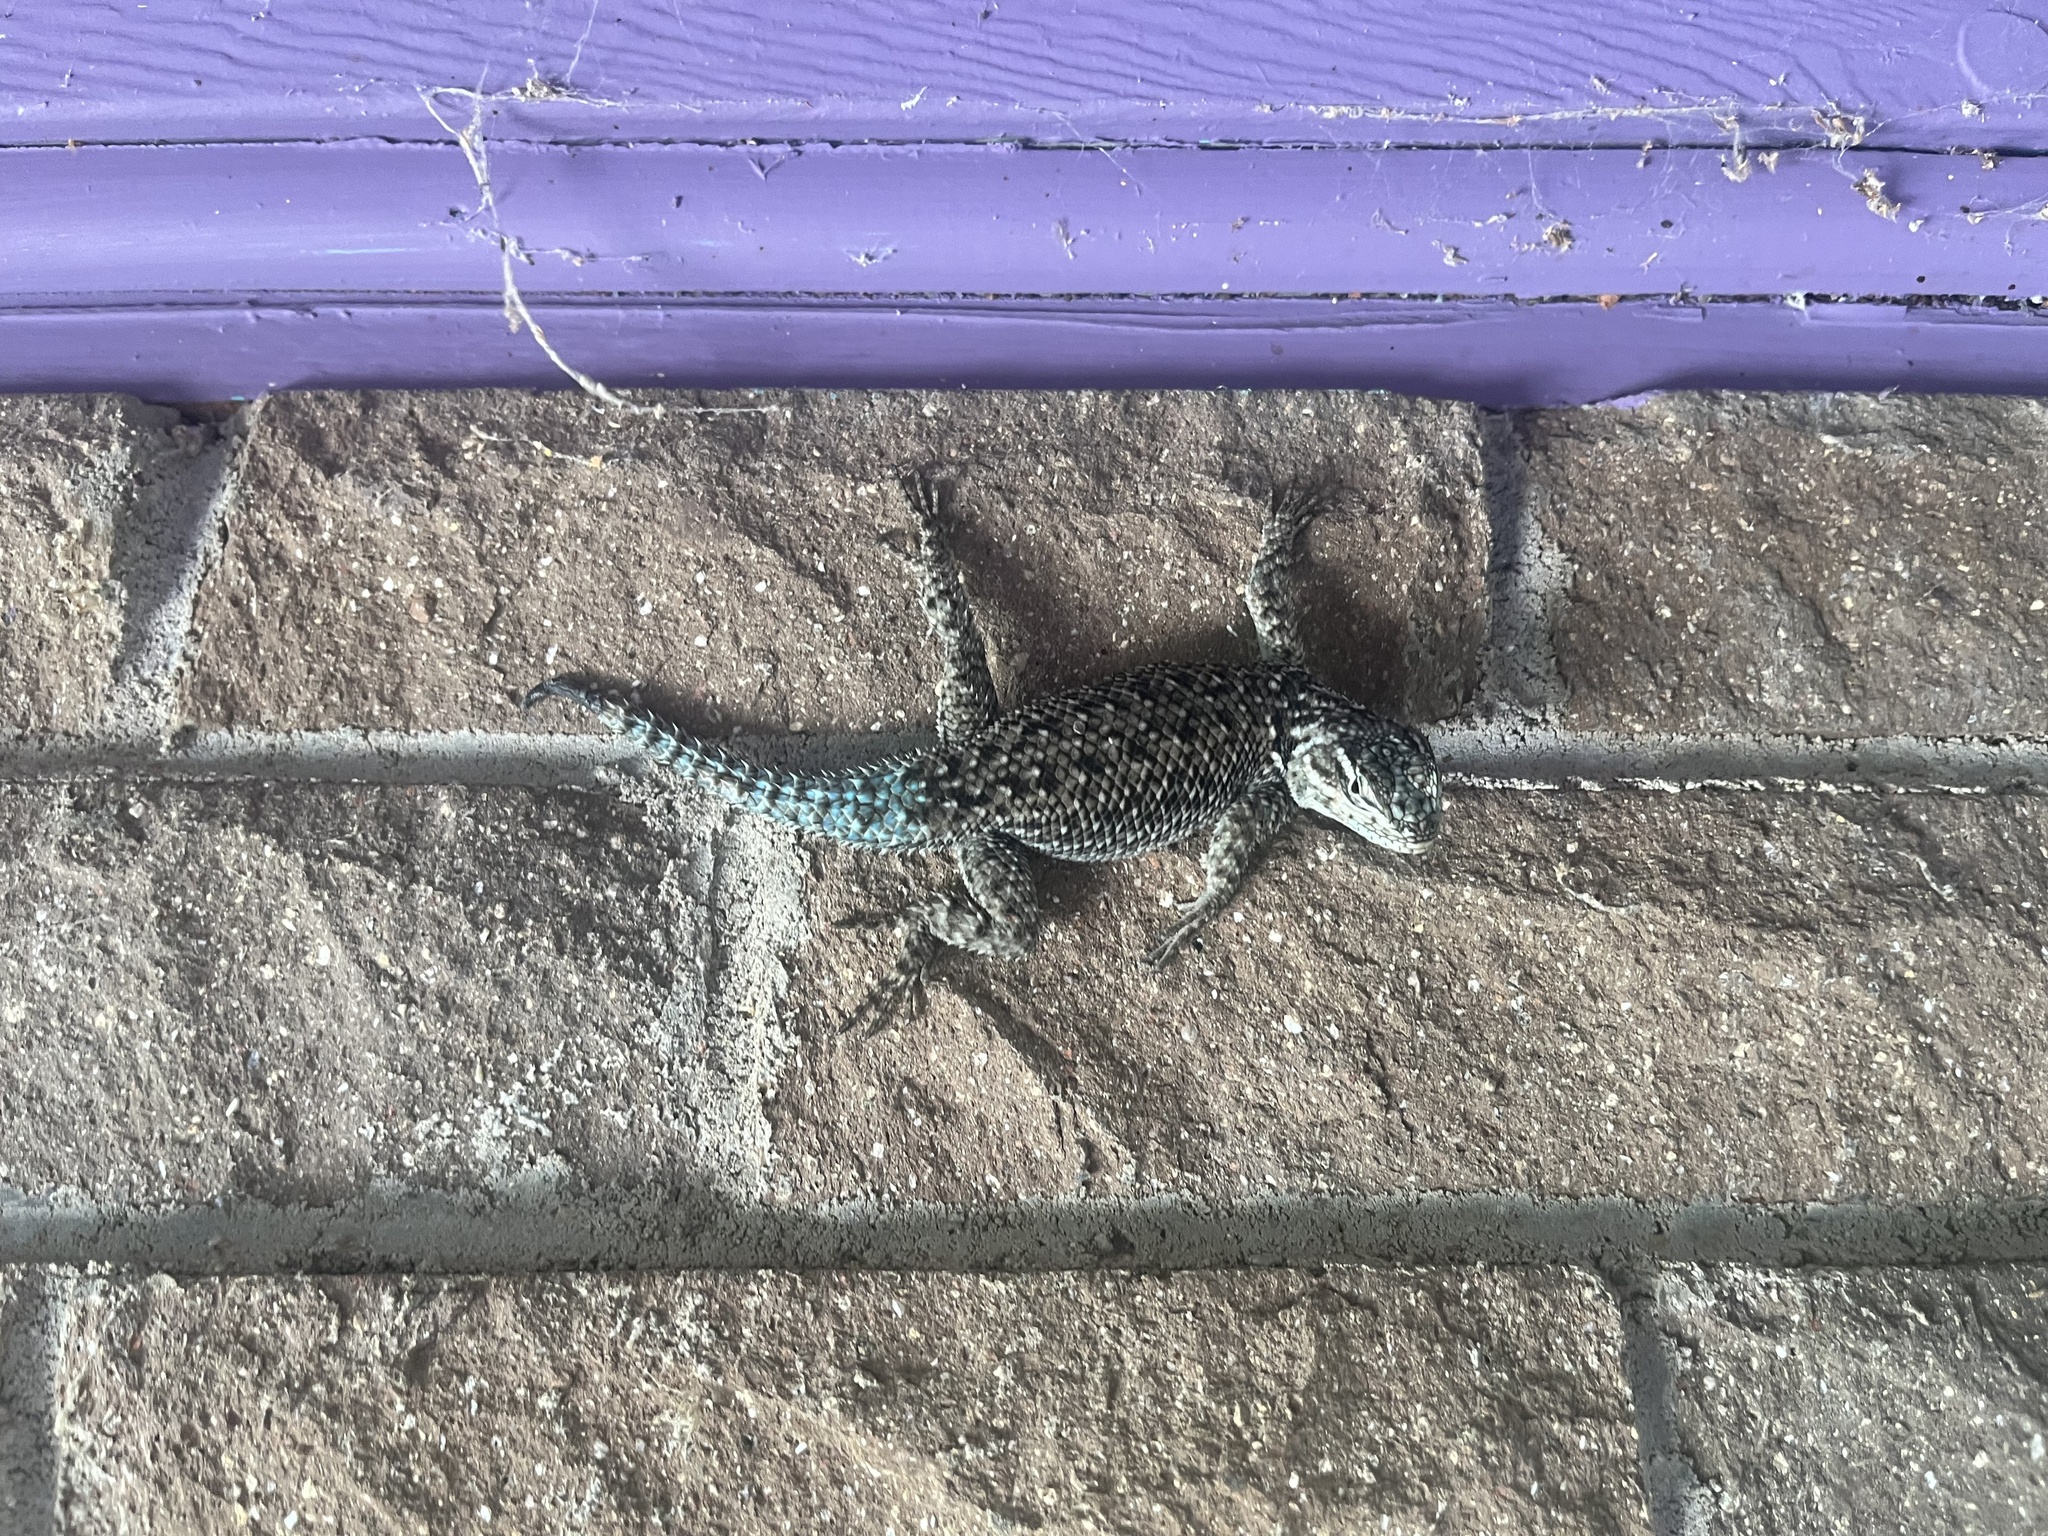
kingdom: Animalia
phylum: Chordata
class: Squamata
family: Phrynosomatidae
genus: Sceloporus
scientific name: Sceloporus jarrovii
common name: Yarrow's spiny lizard
